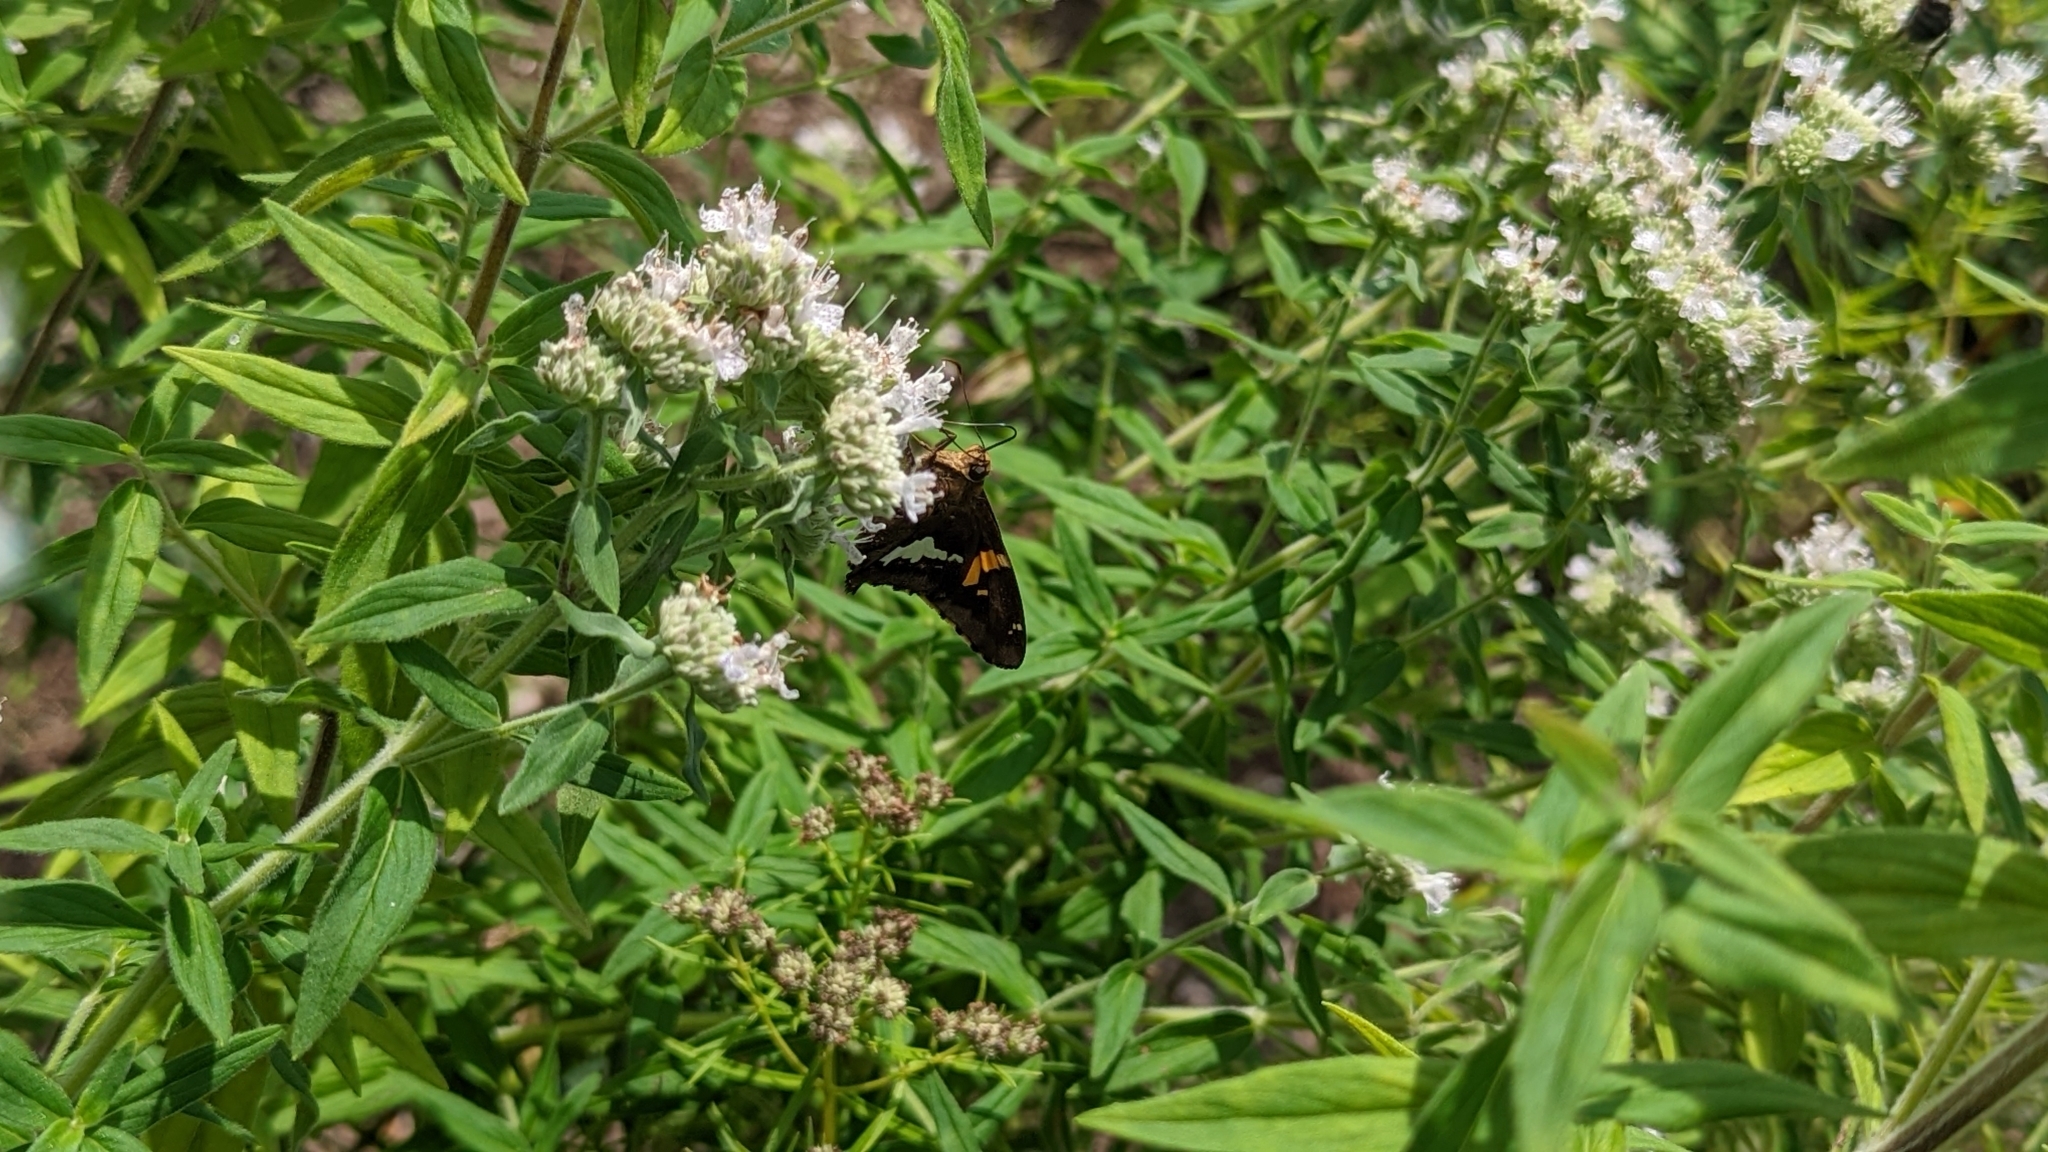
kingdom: Animalia
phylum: Arthropoda
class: Insecta
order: Lepidoptera
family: Hesperiidae
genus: Epargyreus
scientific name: Epargyreus clarus
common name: Silver-spotted skipper
